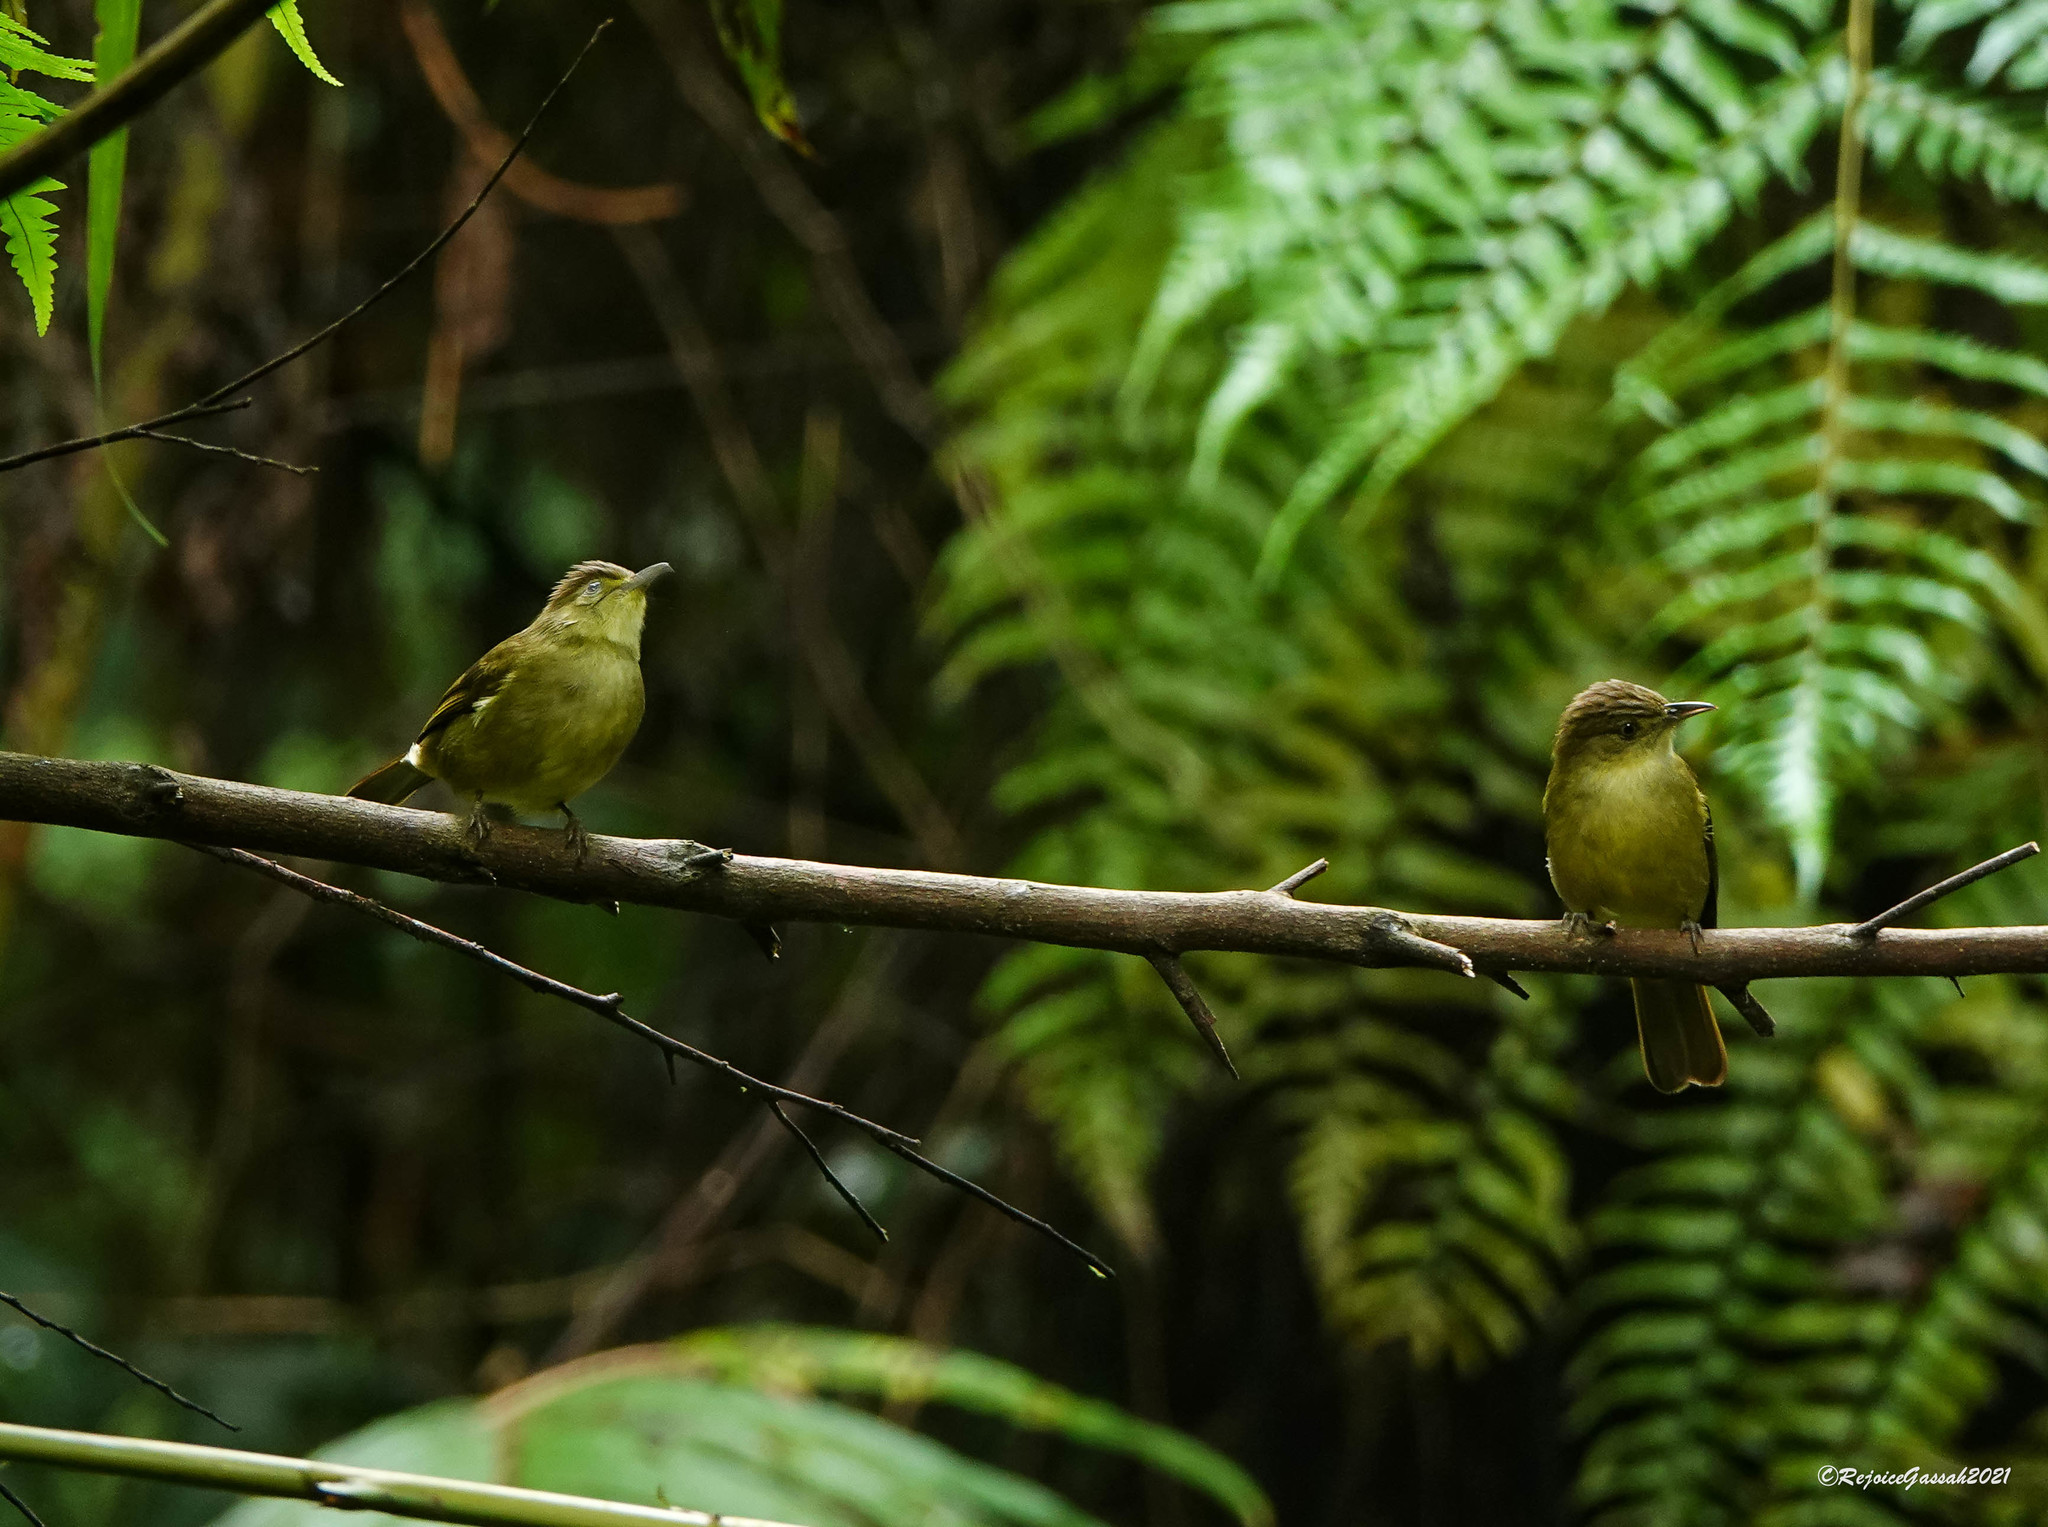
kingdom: Animalia
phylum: Chordata
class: Aves
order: Passeriformes
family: Pycnonotidae
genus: Iole
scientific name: Iole virescens
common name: Olive bulbul
